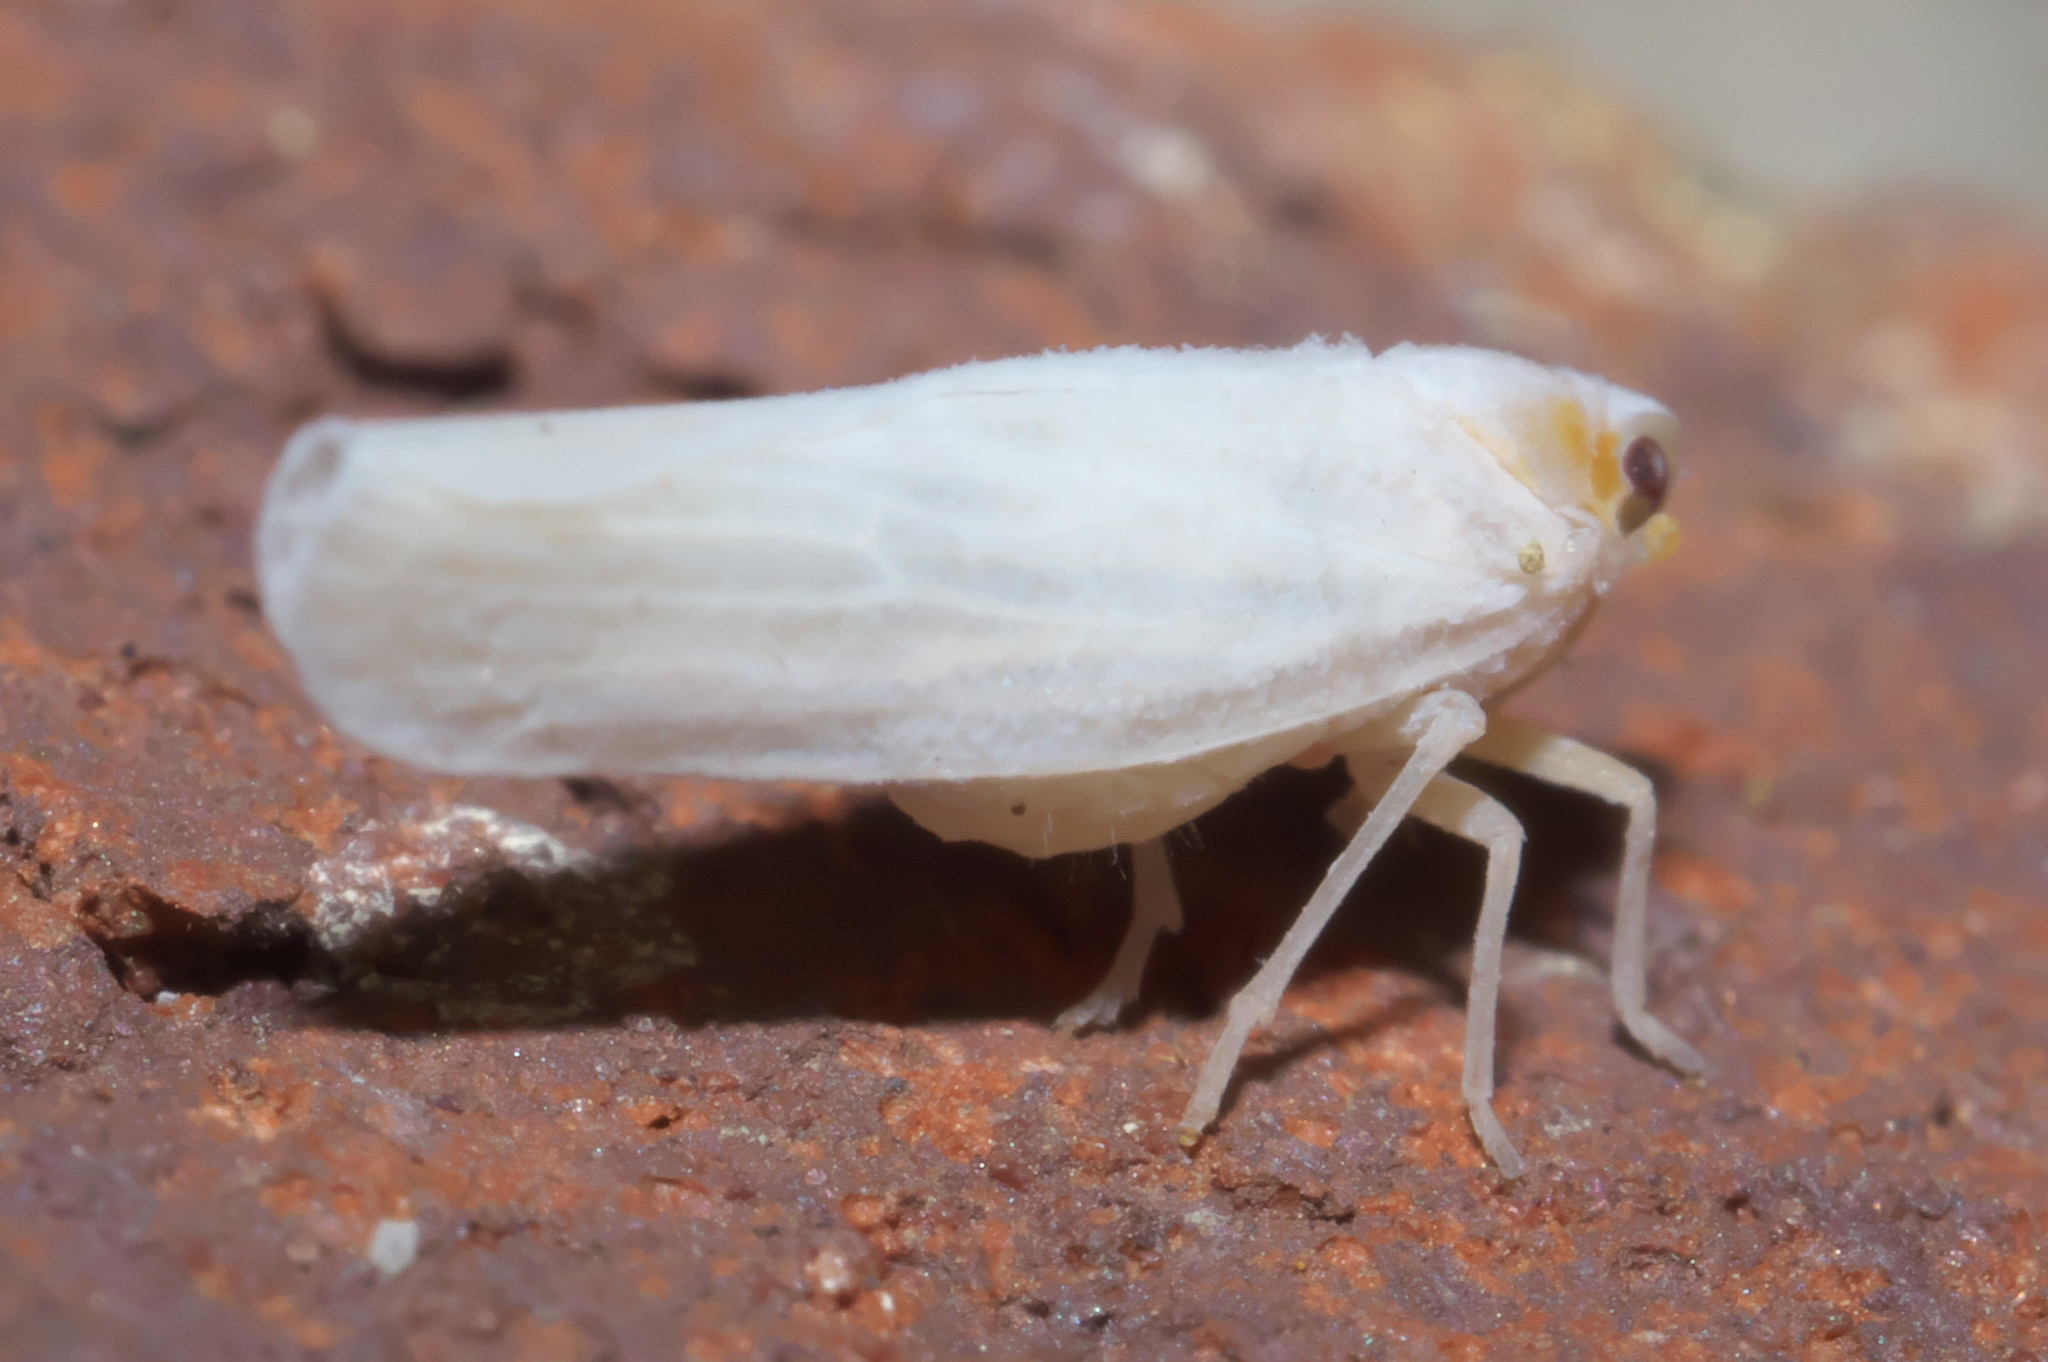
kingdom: Animalia
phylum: Arthropoda
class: Insecta
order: Hemiptera
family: Derbidae
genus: Neocenchrea
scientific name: Neocenchrea heidemanni
